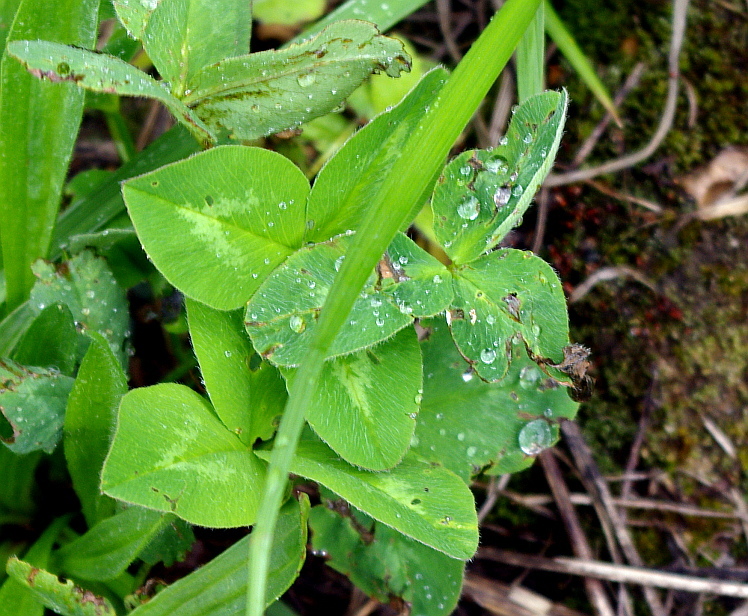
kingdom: Plantae
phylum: Tracheophyta
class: Magnoliopsida
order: Fabales
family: Fabaceae
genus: Trifolium
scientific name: Trifolium pratense
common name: Red clover
